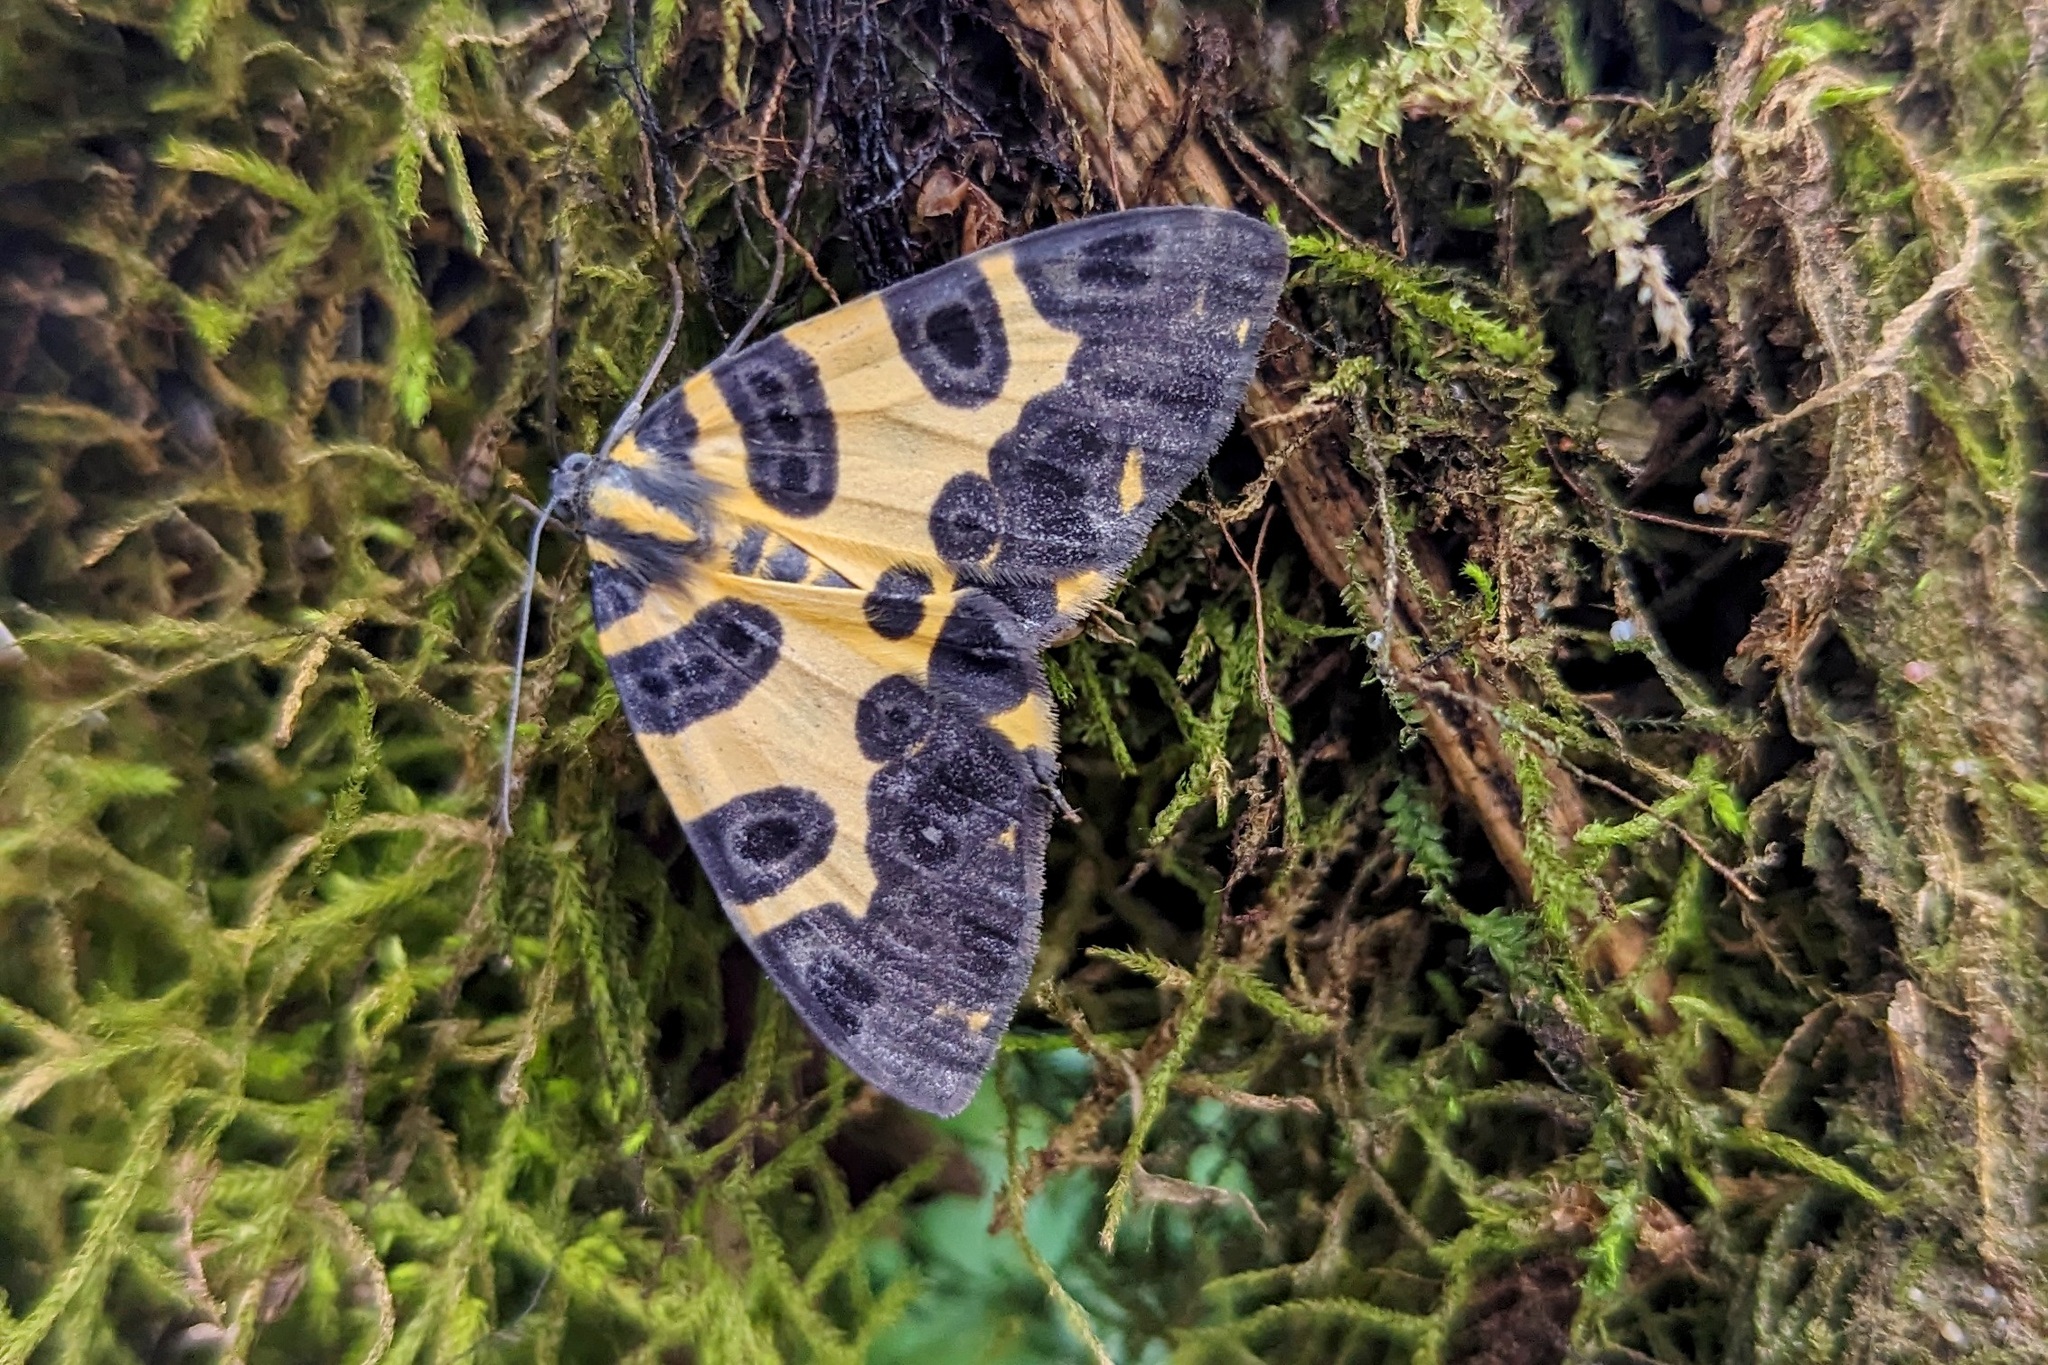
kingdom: Animalia
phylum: Arthropoda
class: Insecta
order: Lepidoptera
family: Geometridae
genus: Pantherodes
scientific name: Pantherodes pardalaria
